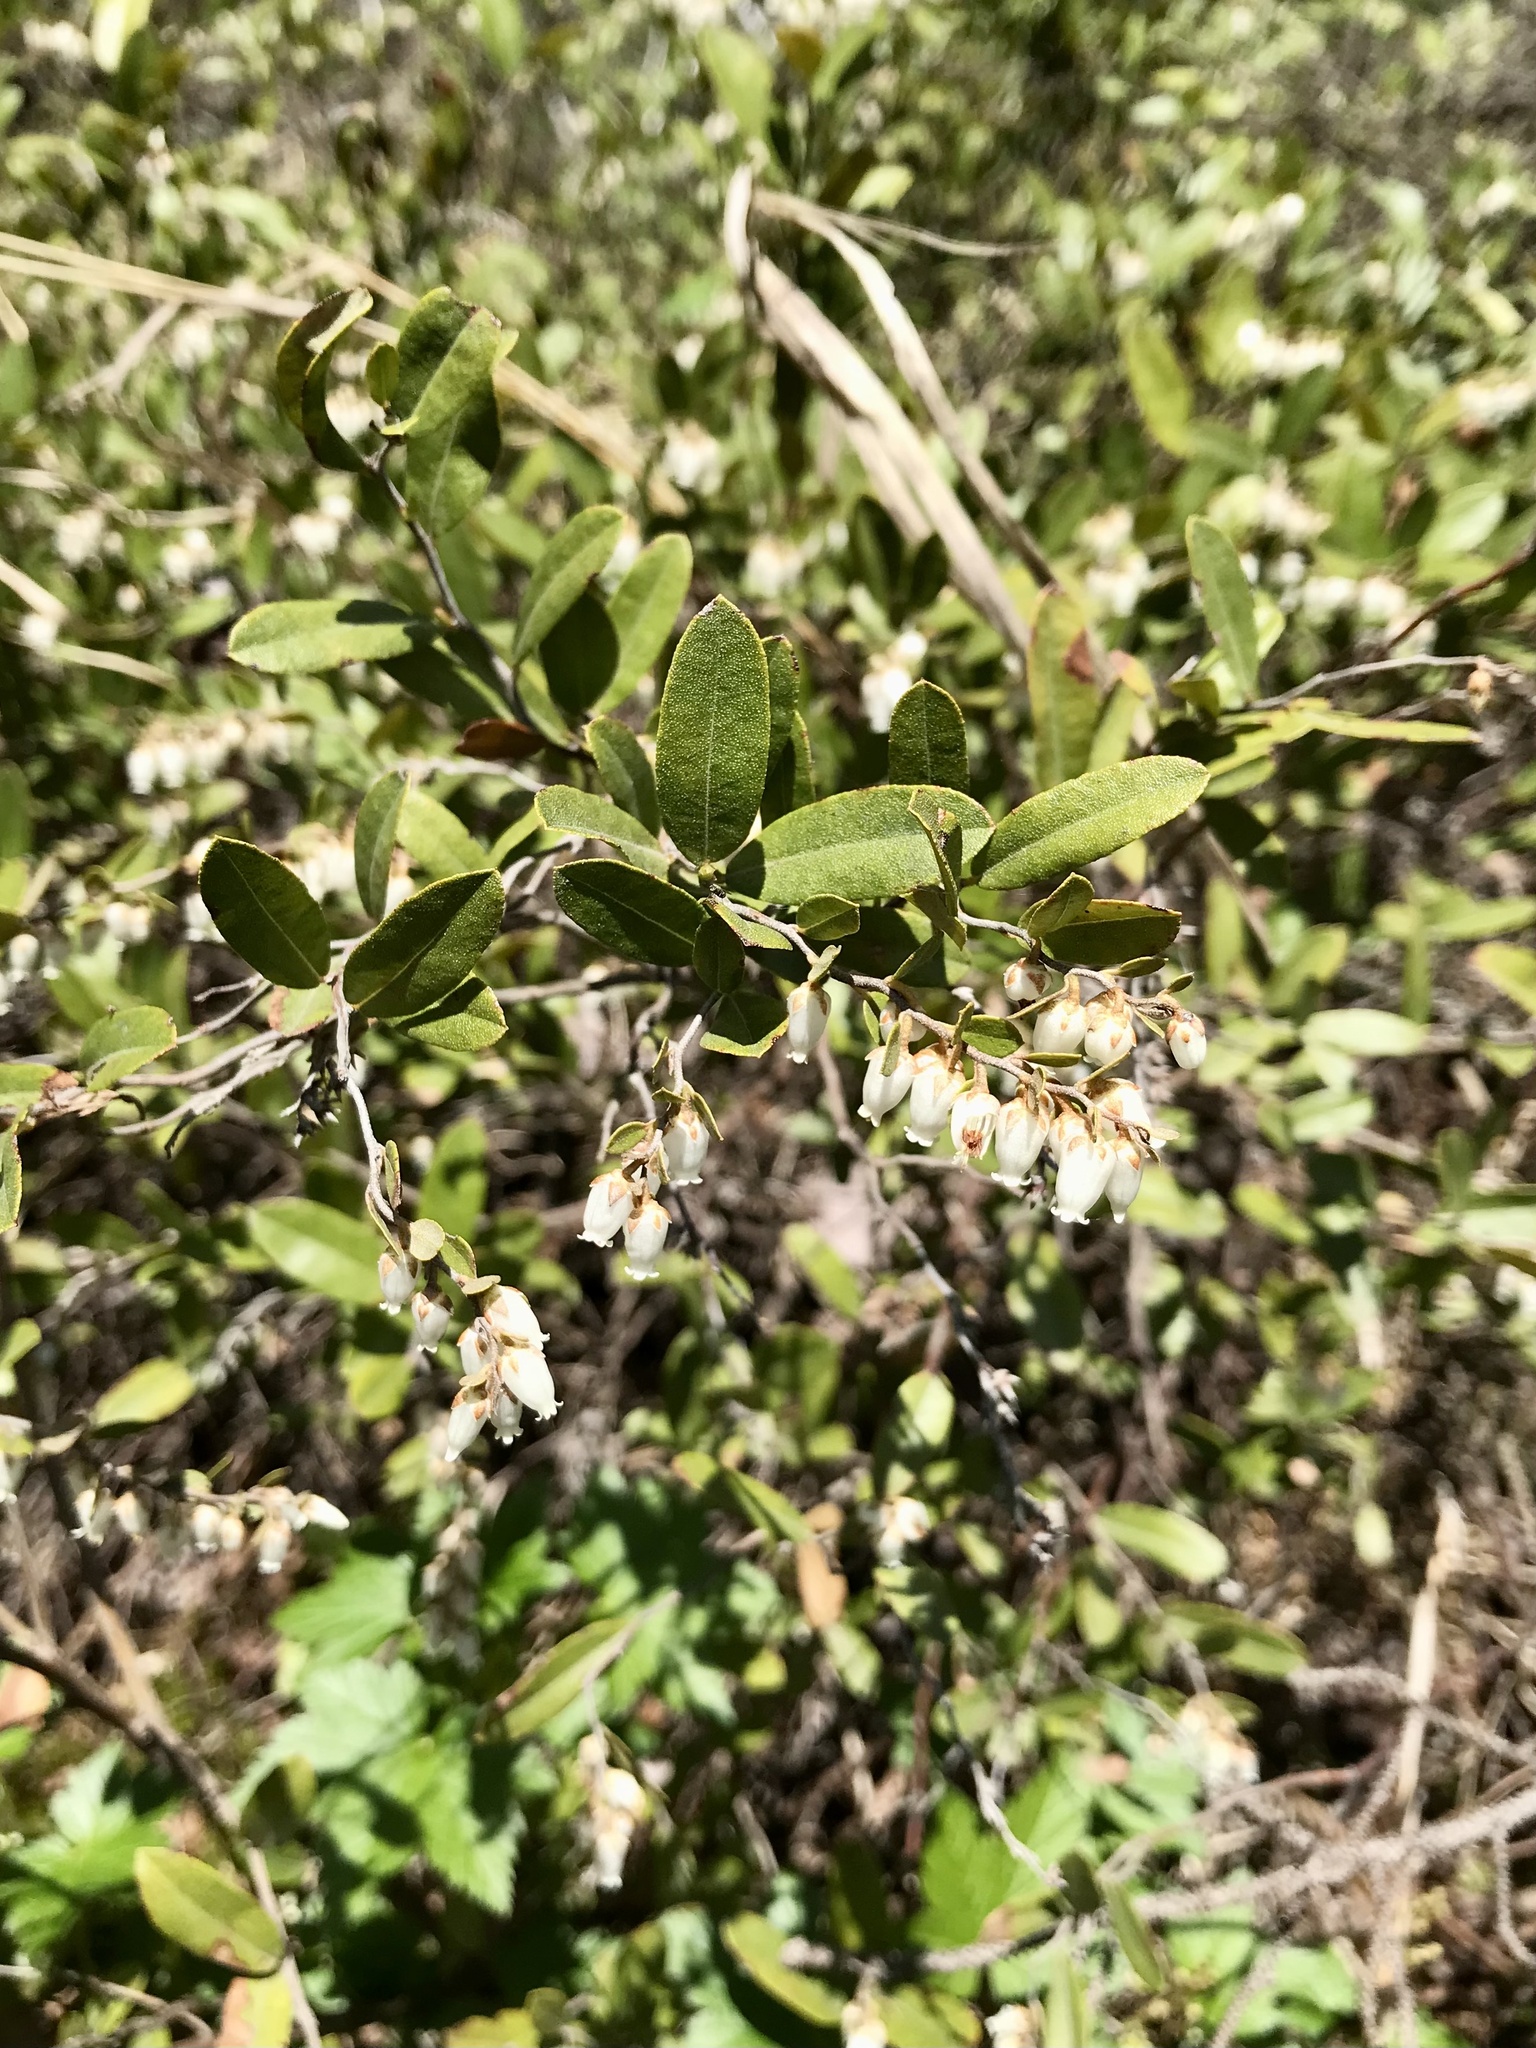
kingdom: Plantae
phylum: Tracheophyta
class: Magnoliopsida
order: Ericales
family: Ericaceae
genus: Chamaedaphne
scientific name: Chamaedaphne calyculata
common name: Leatherleaf
